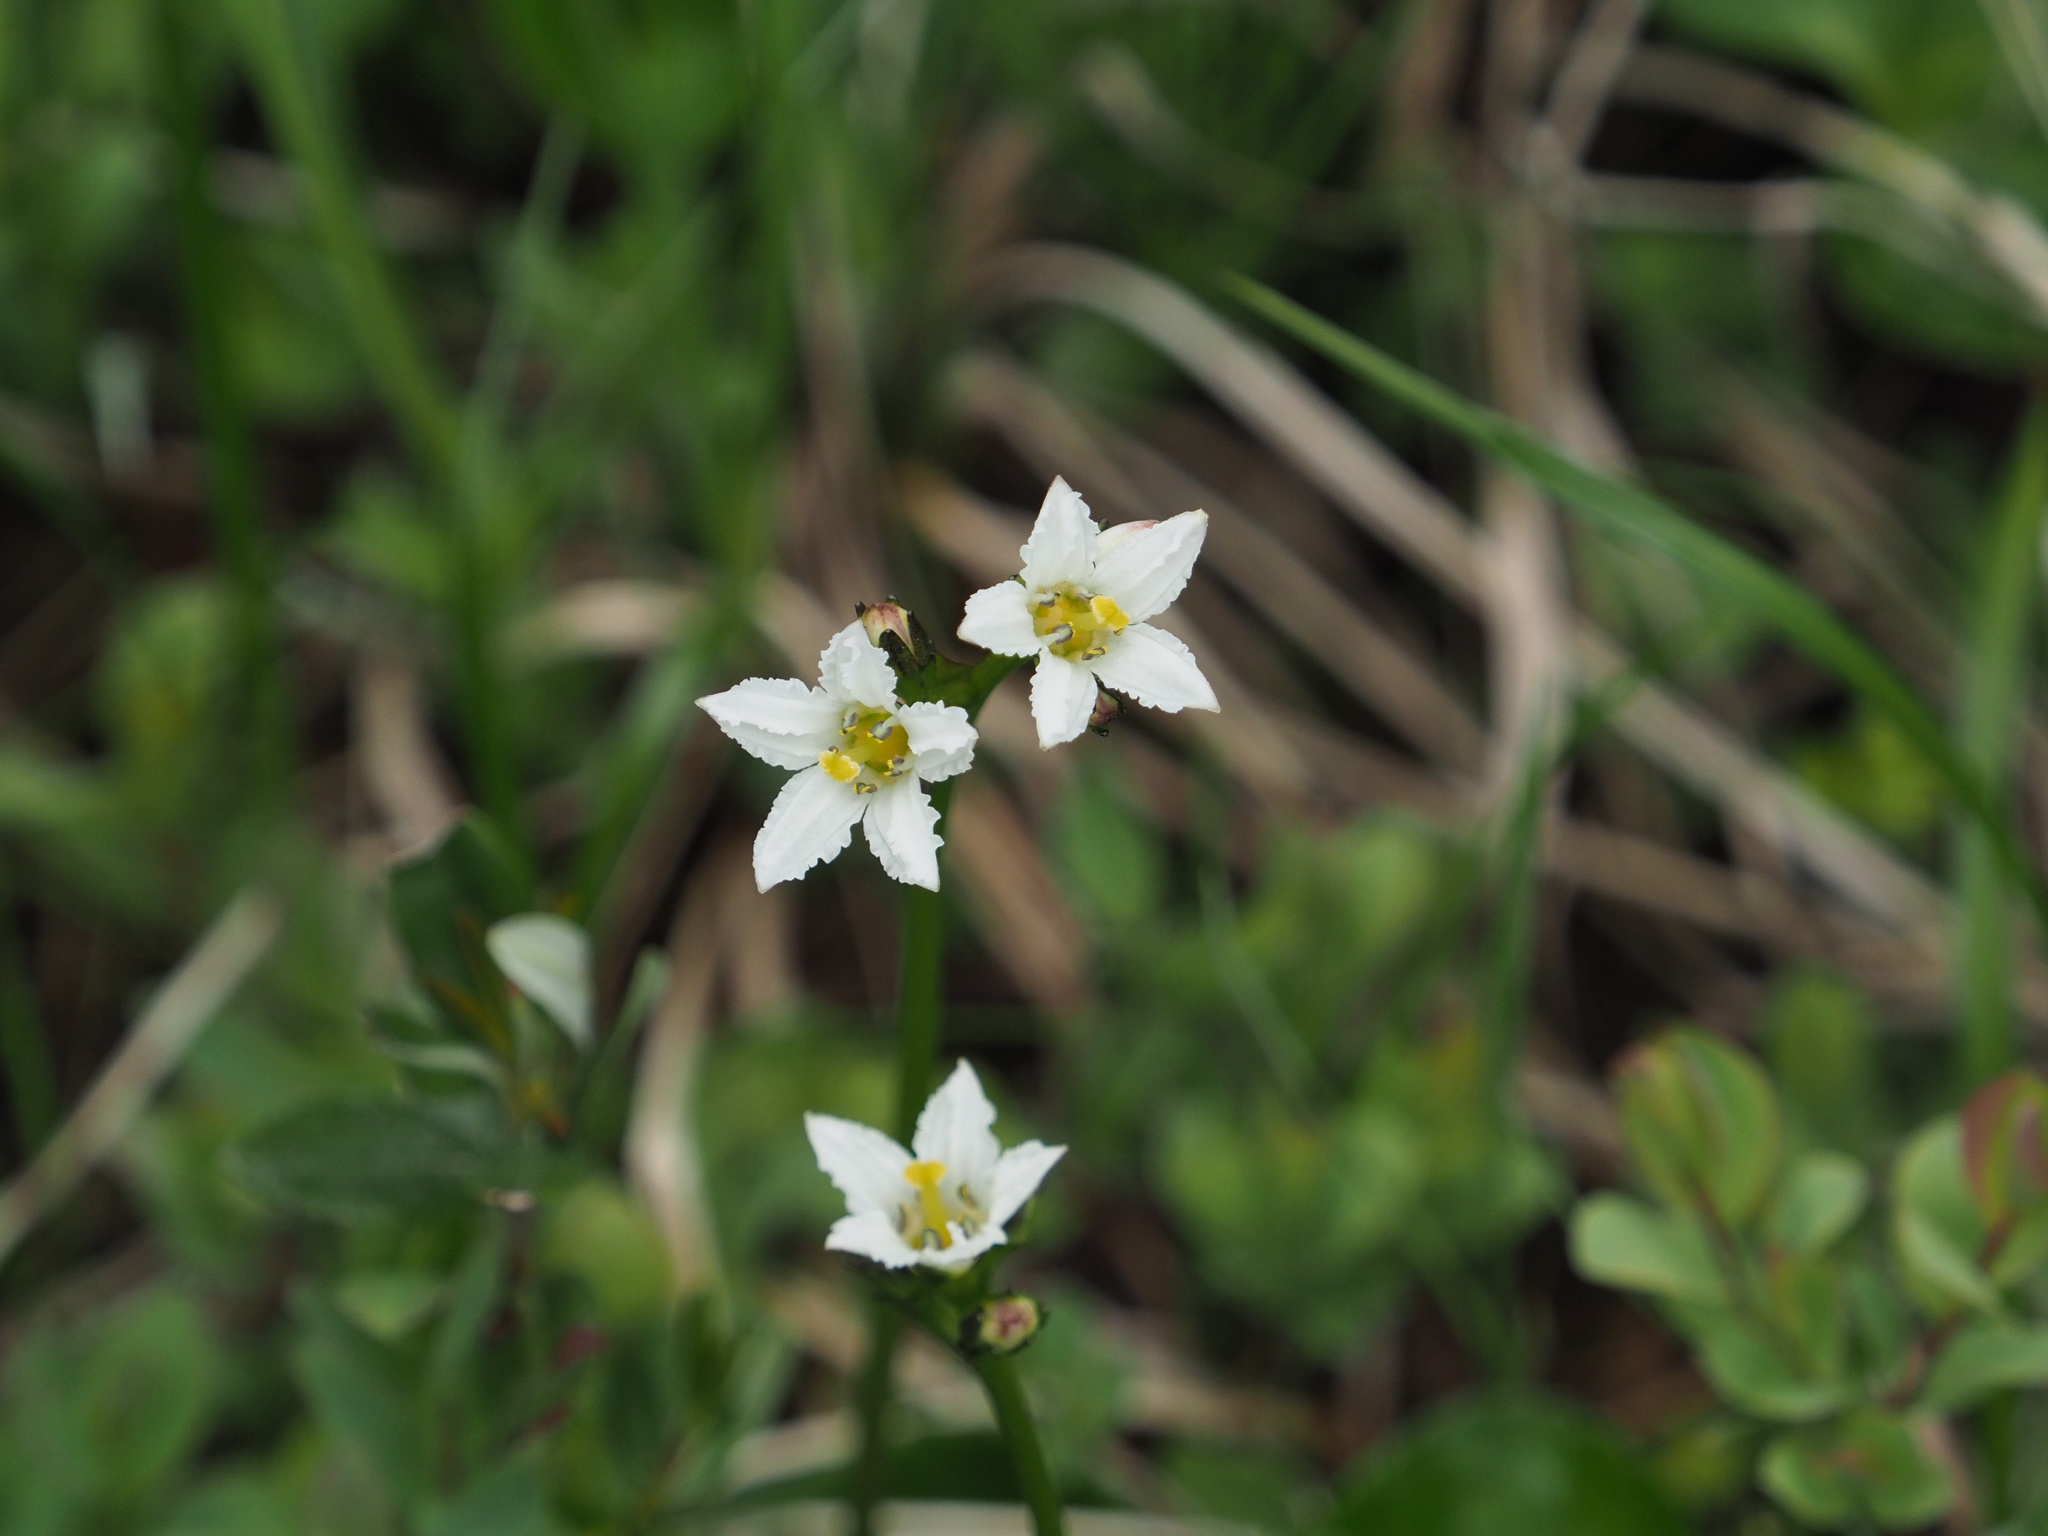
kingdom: Plantae
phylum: Tracheophyta
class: Magnoliopsida
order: Asterales
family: Menyanthaceae
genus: Nephrophyllidium
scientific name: Nephrophyllidium crista-galli
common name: Deer-cabbage
